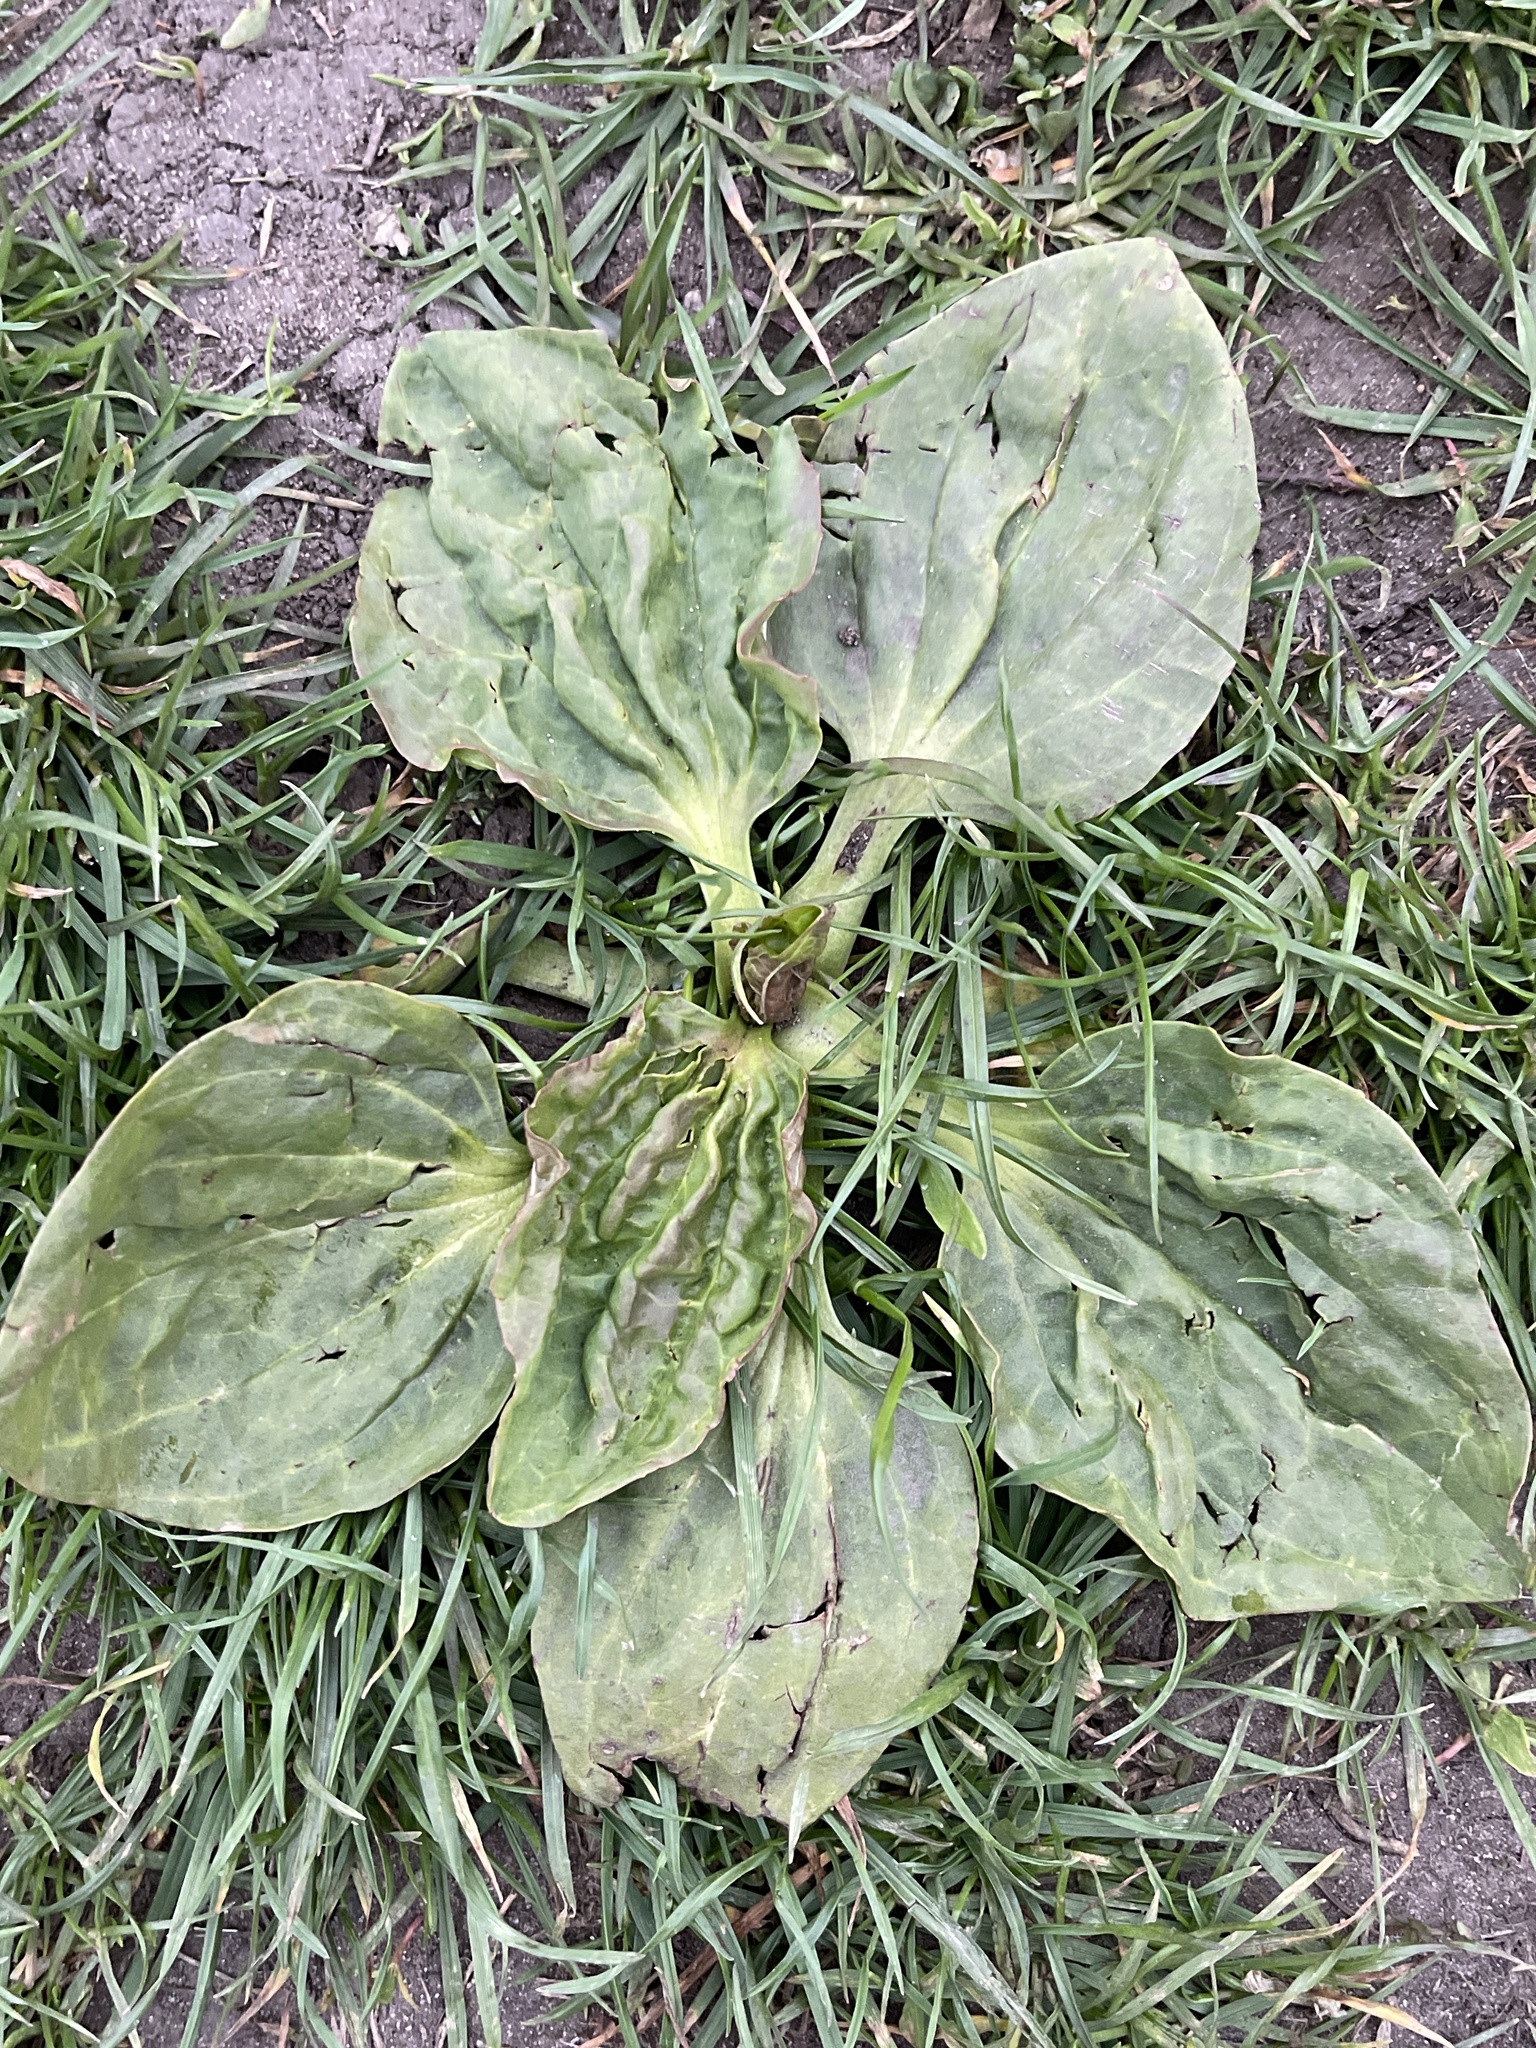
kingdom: Plantae
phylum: Tracheophyta
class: Magnoliopsida
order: Lamiales
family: Plantaginaceae
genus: Plantago
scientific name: Plantago major
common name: Common plantain
